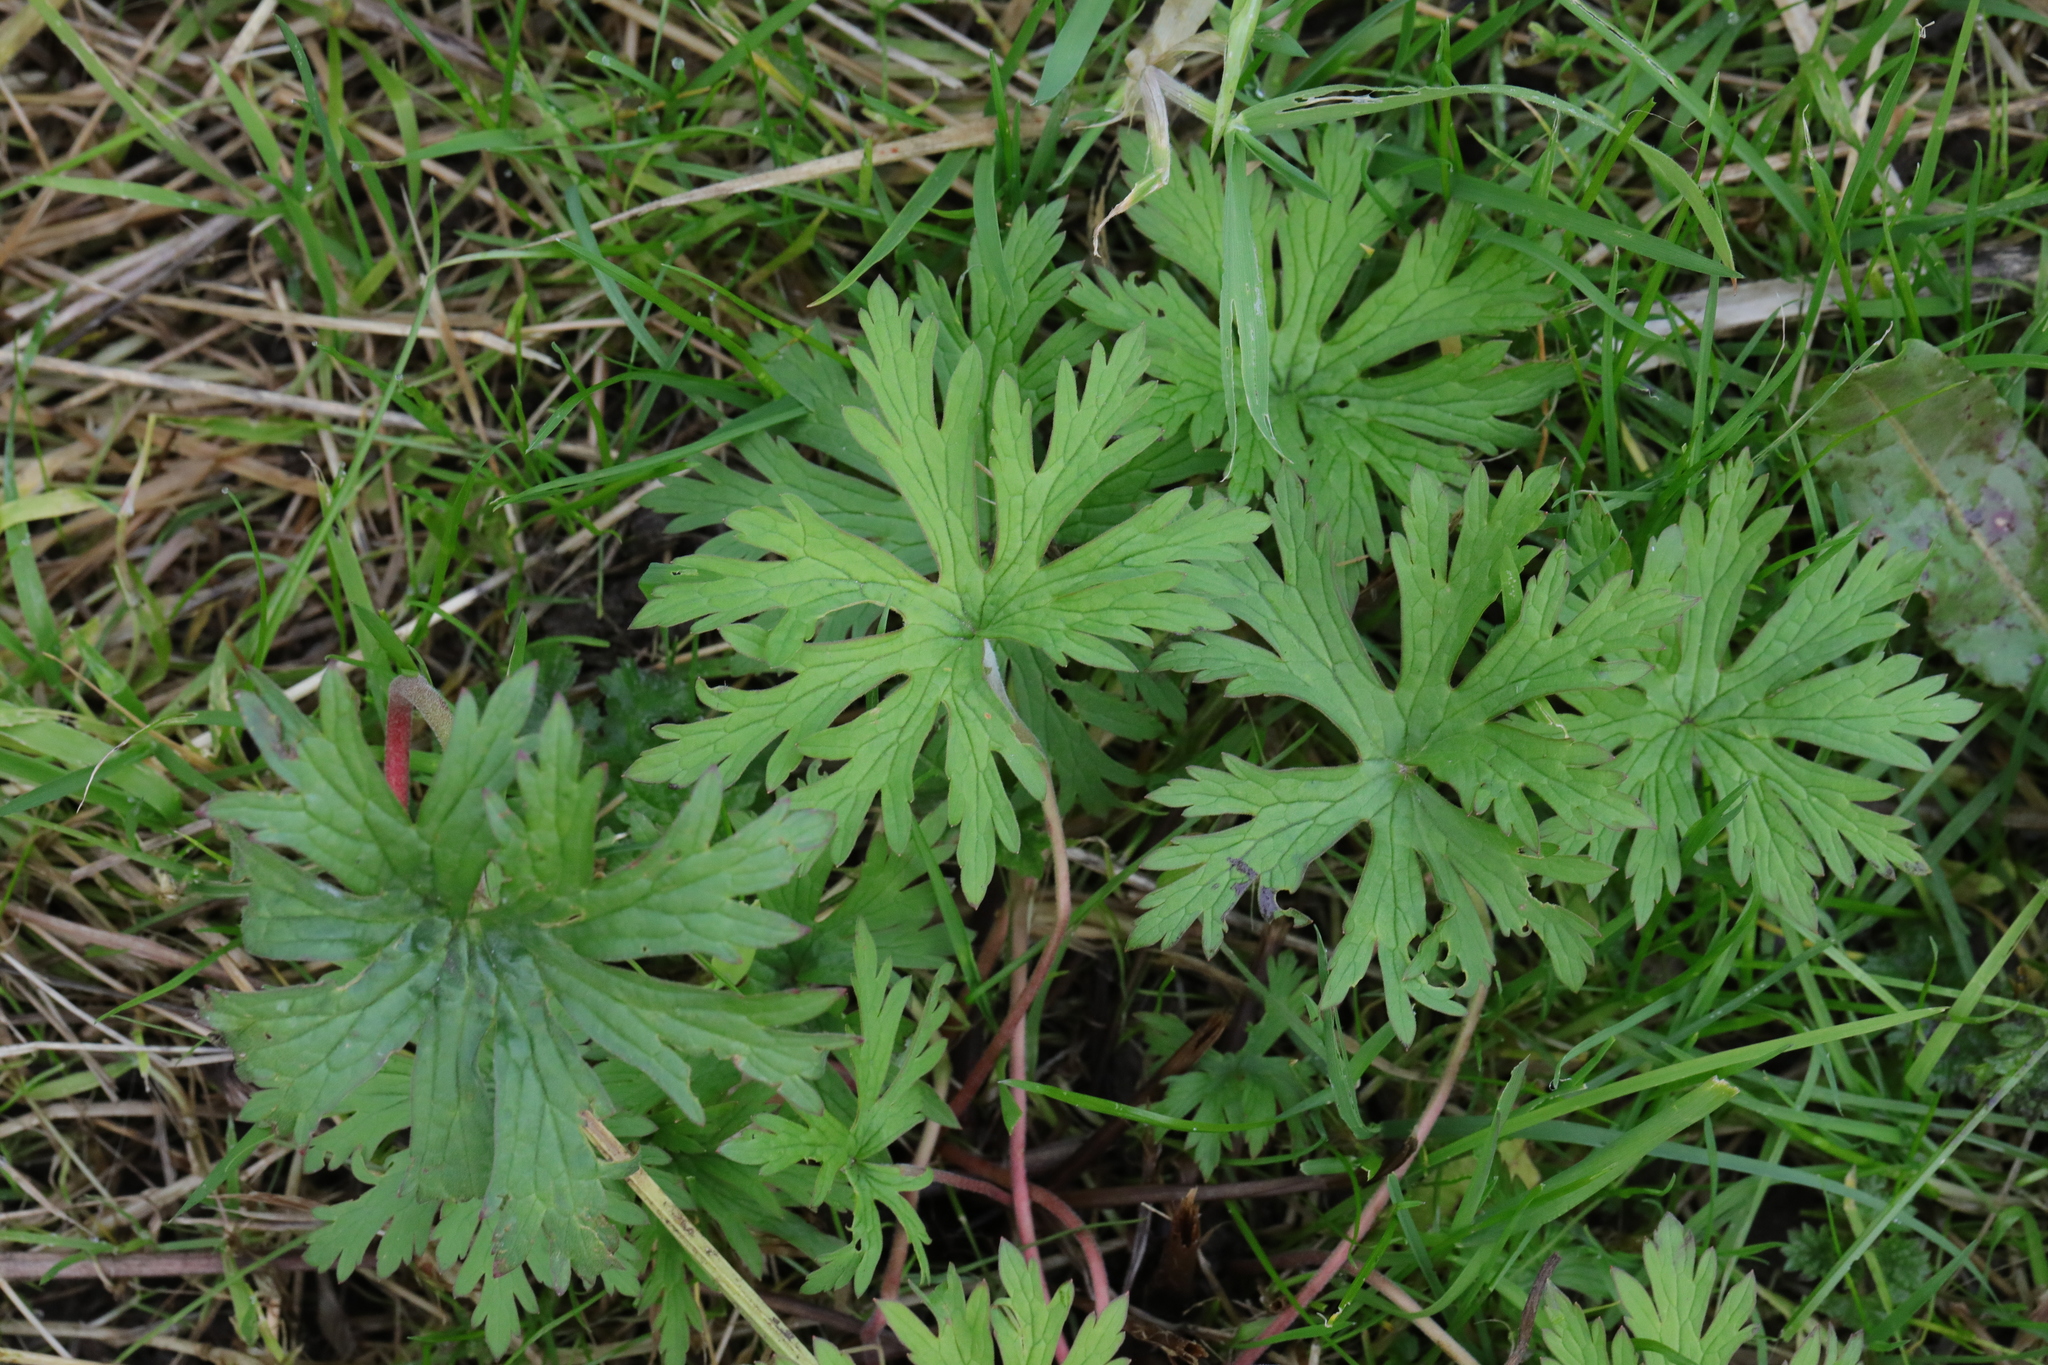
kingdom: Plantae
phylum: Tracheophyta
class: Magnoliopsida
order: Ranunculales
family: Ranunculaceae
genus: Ranunculus
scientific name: Ranunculus acris
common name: Meadow buttercup
